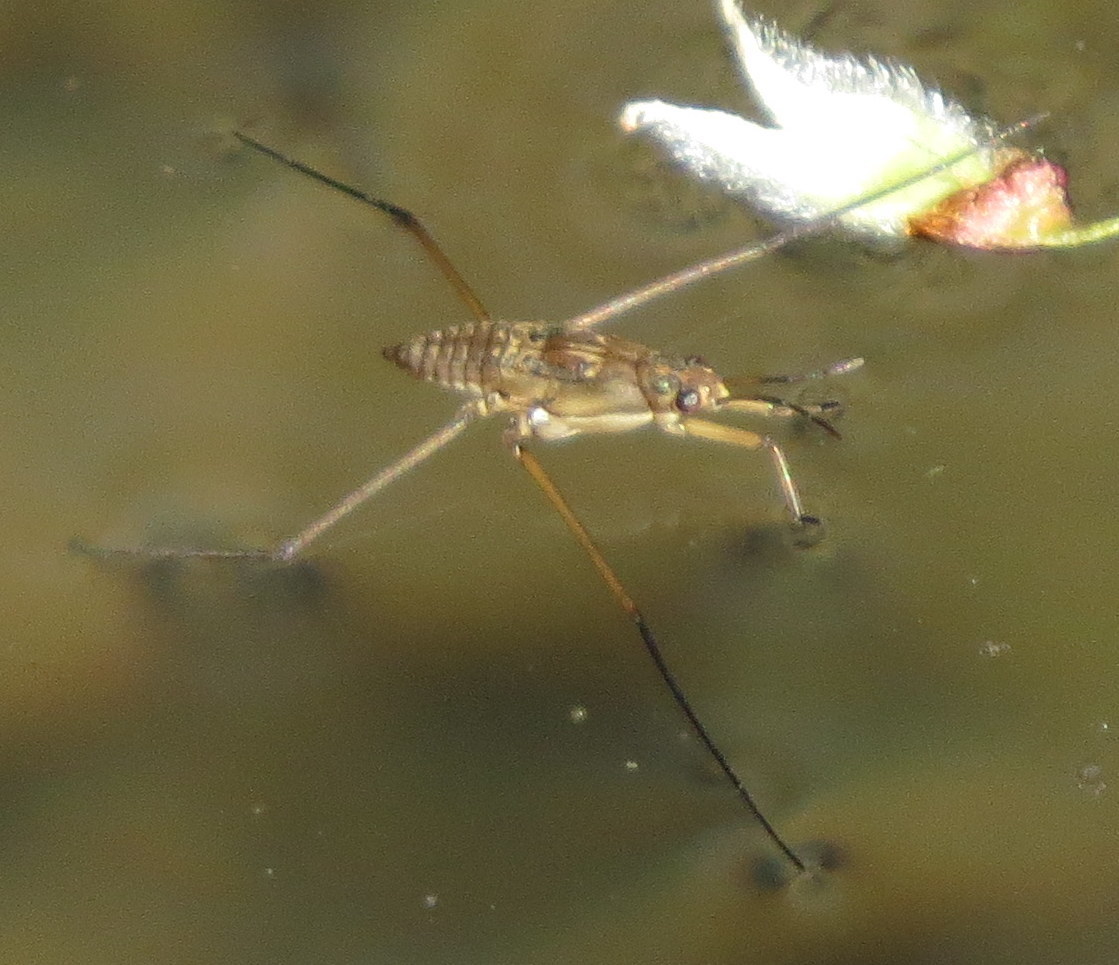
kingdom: Animalia
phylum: Arthropoda
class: Insecta
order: Hemiptera
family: Gerridae
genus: Aquarius
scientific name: Aquarius remigis
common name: Common water strider
